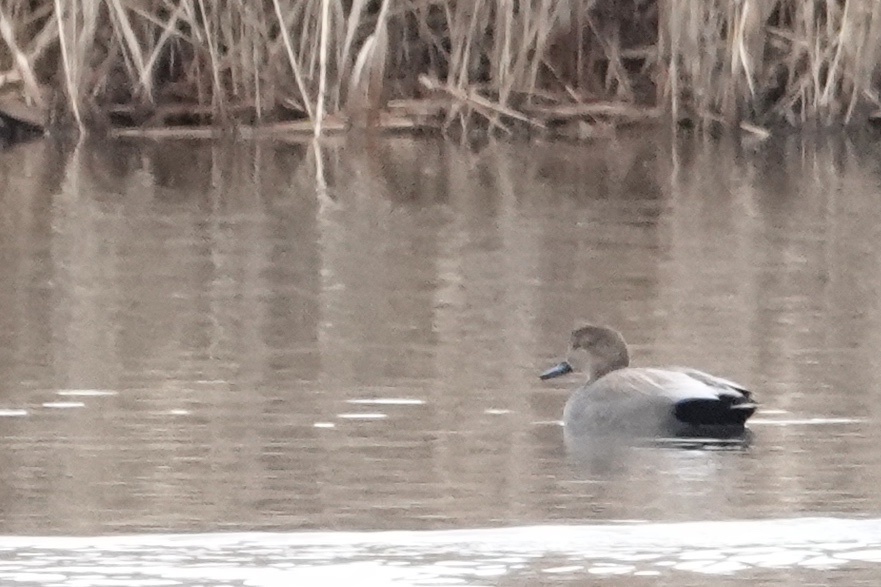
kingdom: Animalia
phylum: Chordata
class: Aves
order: Anseriformes
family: Anatidae
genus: Mareca
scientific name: Mareca strepera
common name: Gadwall
